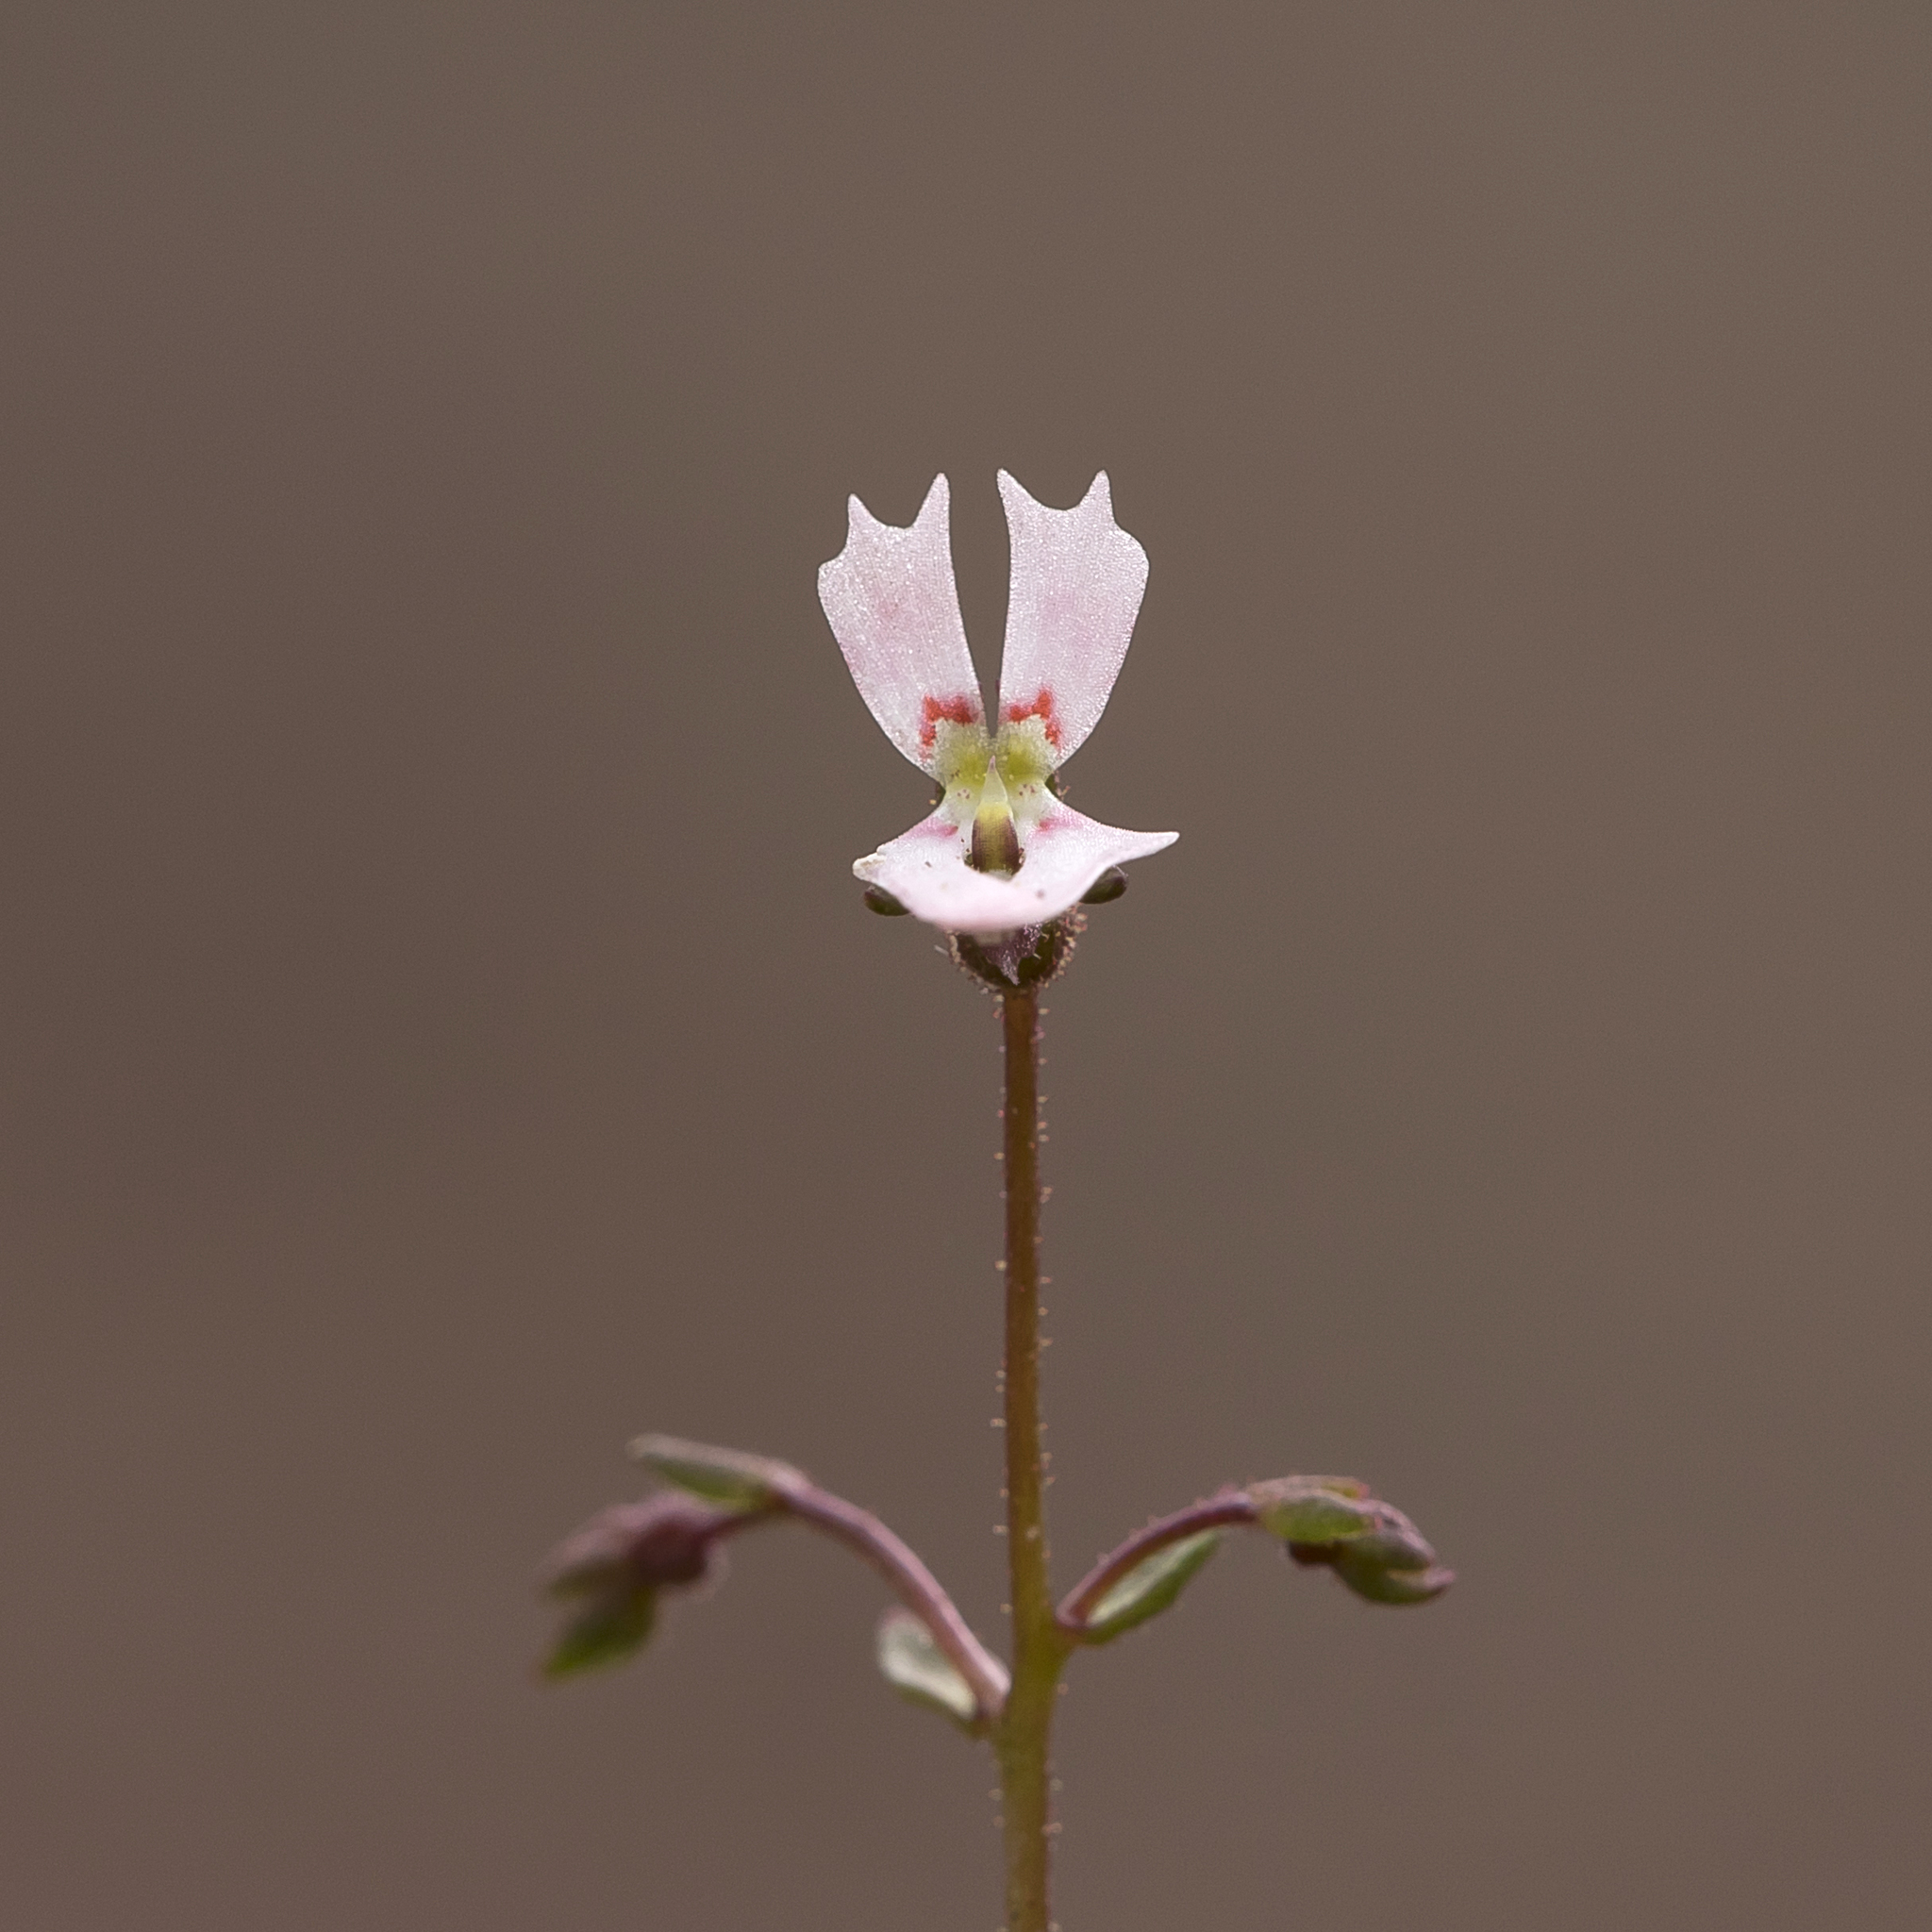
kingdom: Plantae
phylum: Tracheophyta
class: Magnoliopsida
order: Asterales
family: Stylidiaceae
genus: Stylidium
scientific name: Stylidium calcaratum
